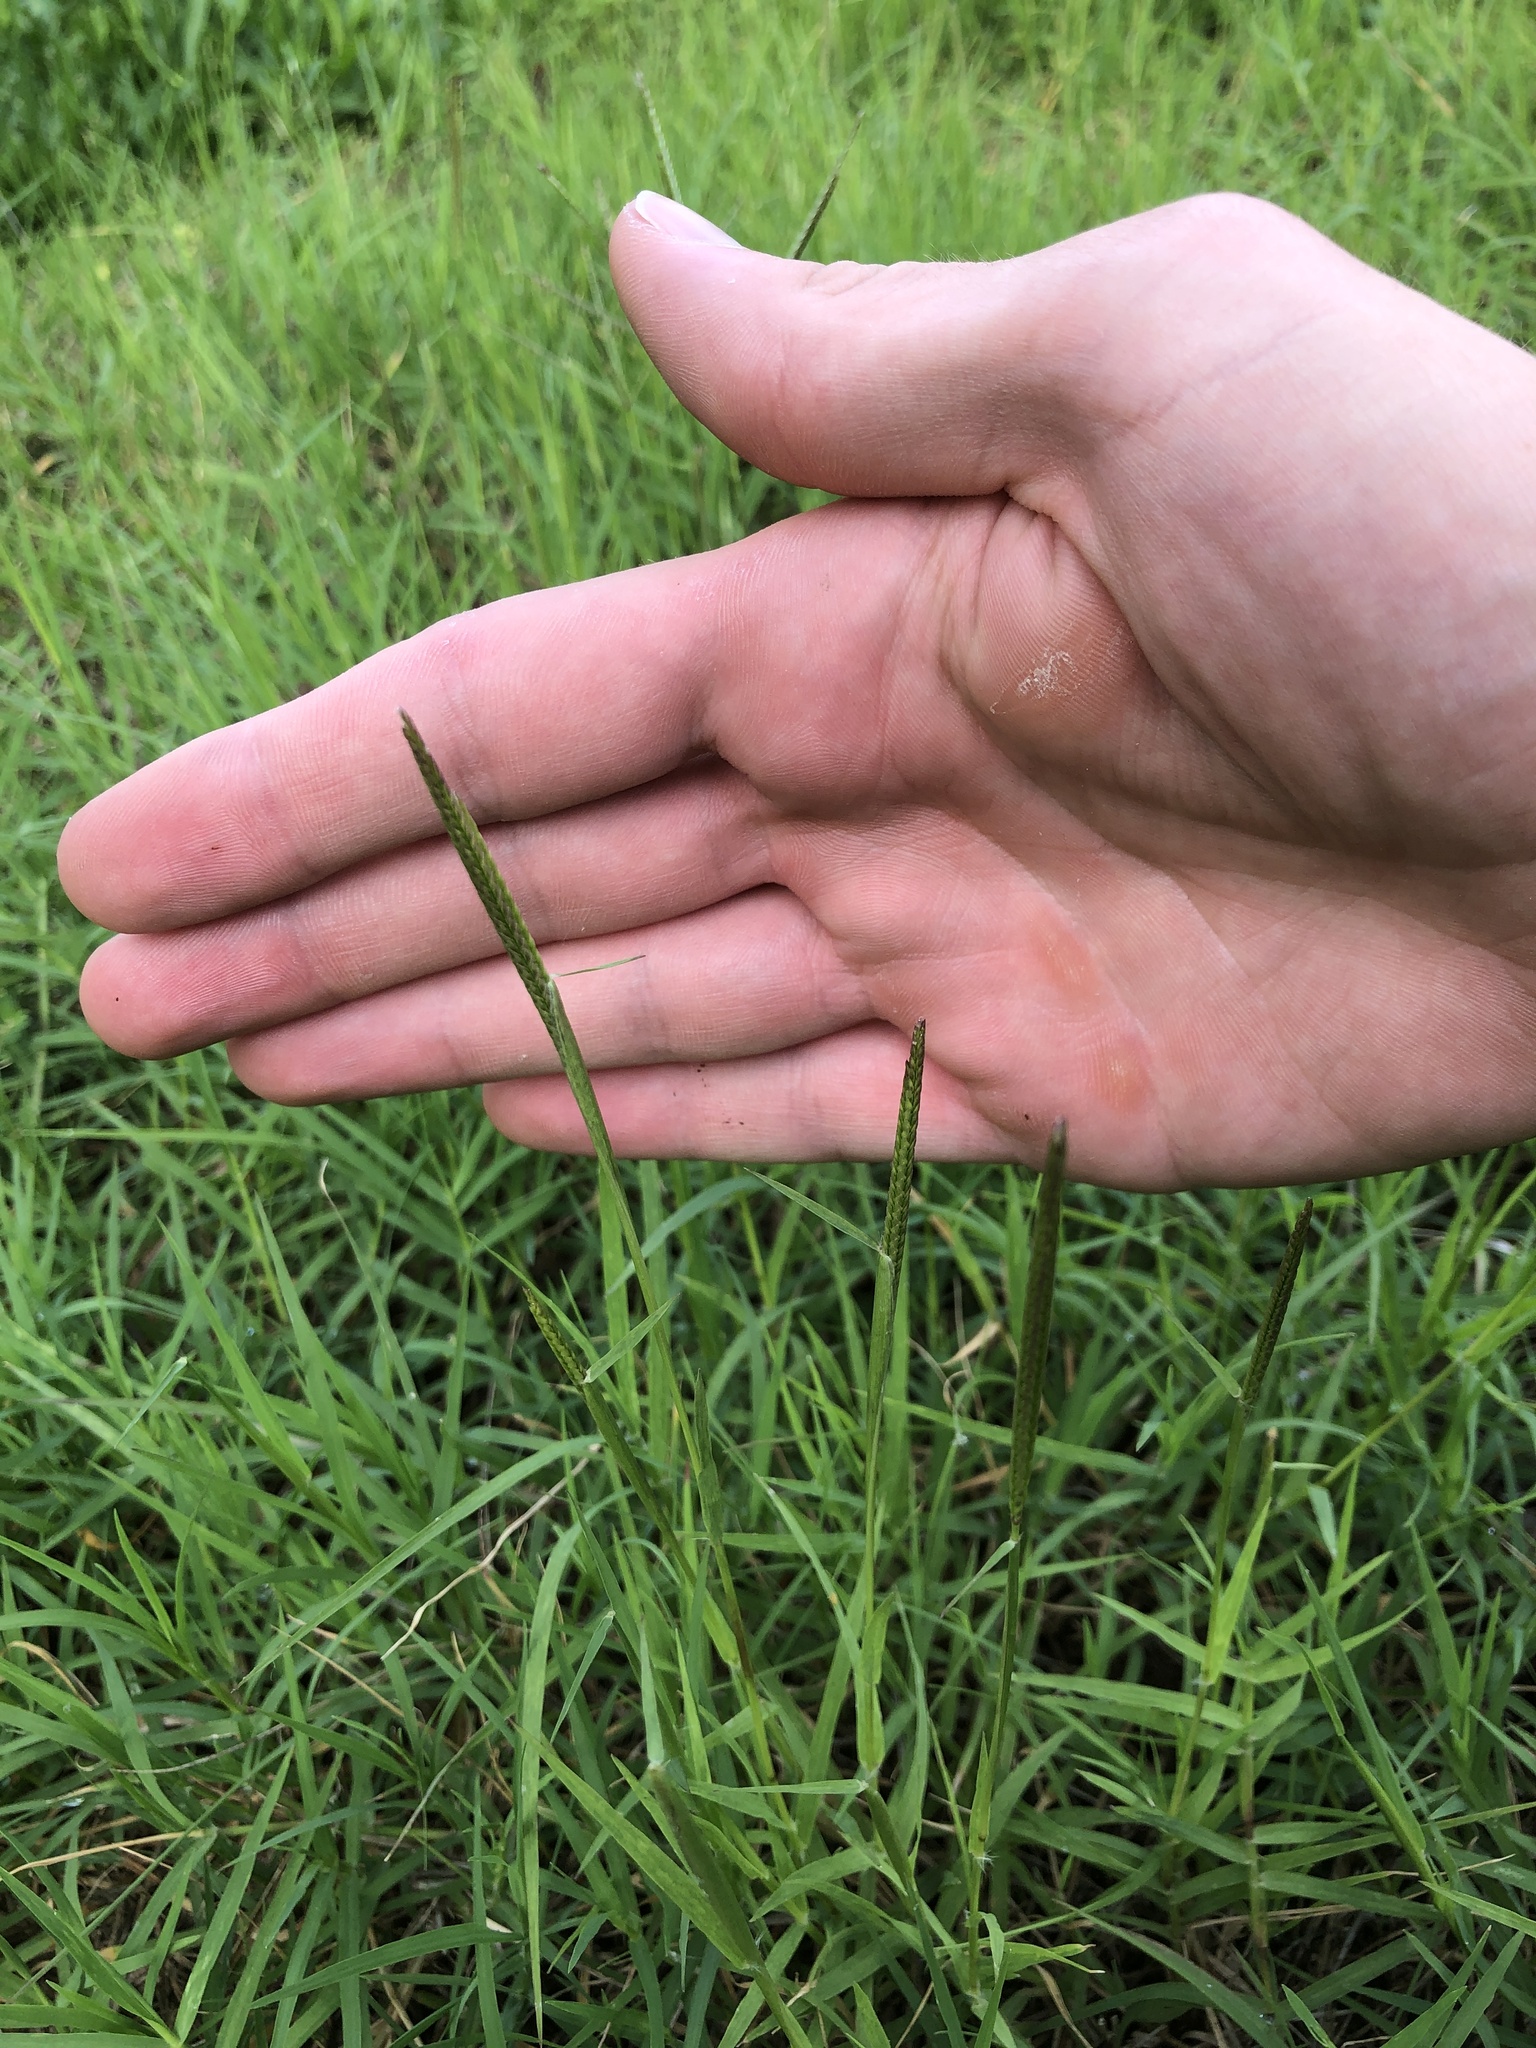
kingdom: Plantae
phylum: Tracheophyta
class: Liliopsida
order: Poales
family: Poaceae
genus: Cynodon
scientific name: Cynodon dactylon
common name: Bermuda grass
